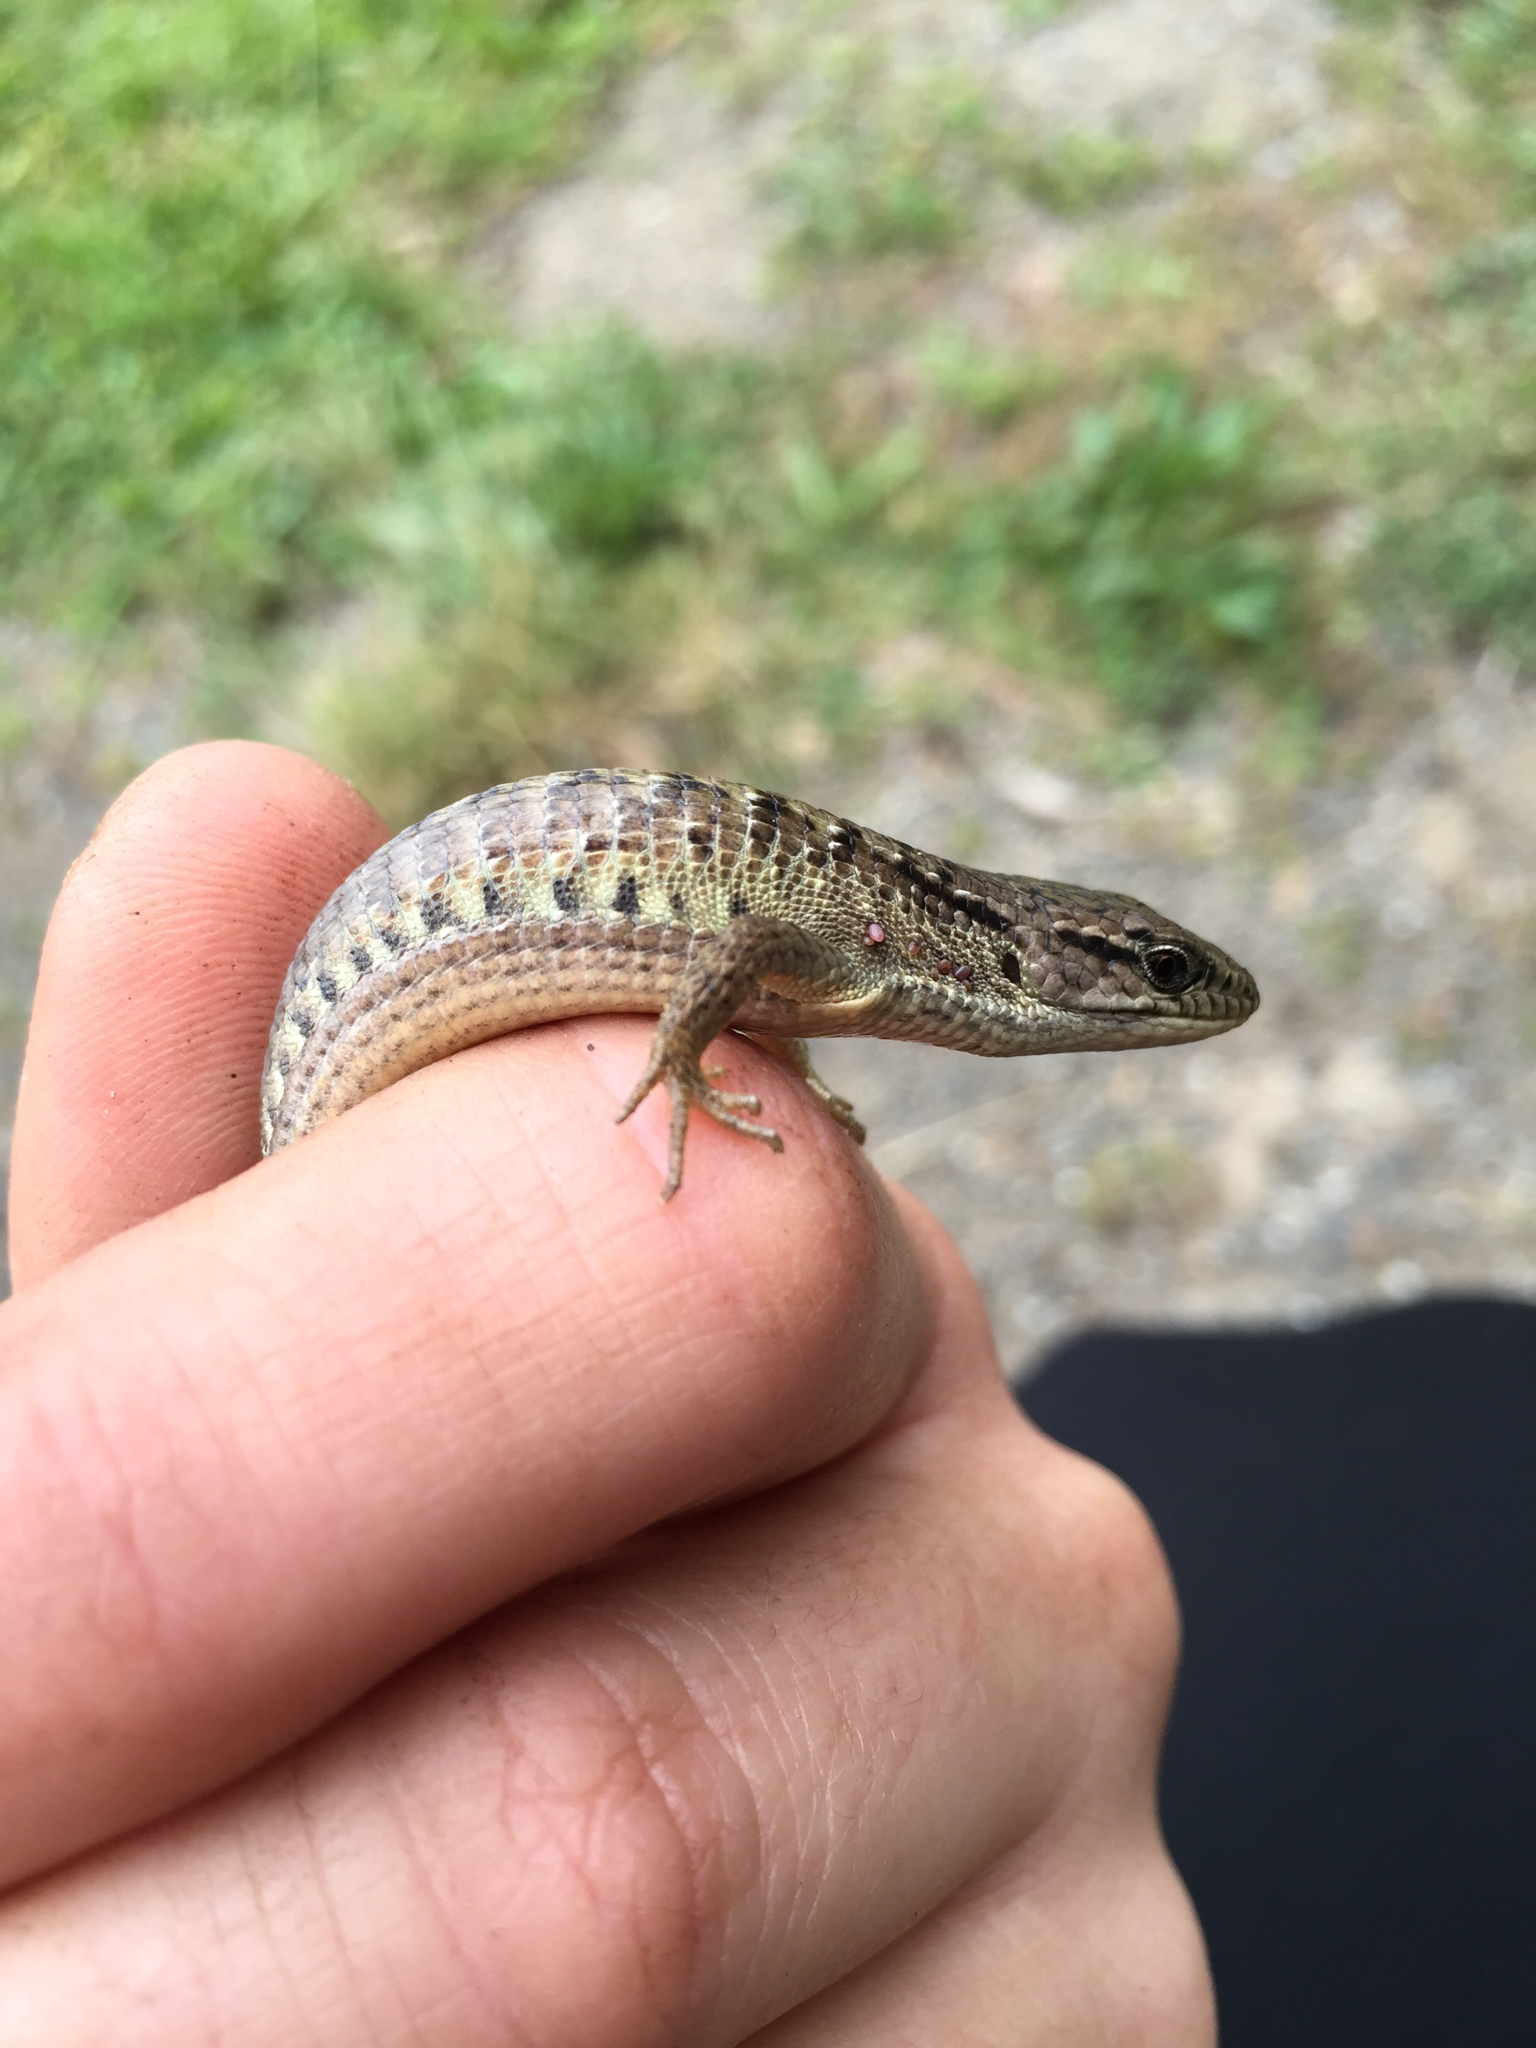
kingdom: Animalia
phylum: Chordata
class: Squamata
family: Anguidae
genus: Elgaria
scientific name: Elgaria coerulea
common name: Northern alligator lizard
